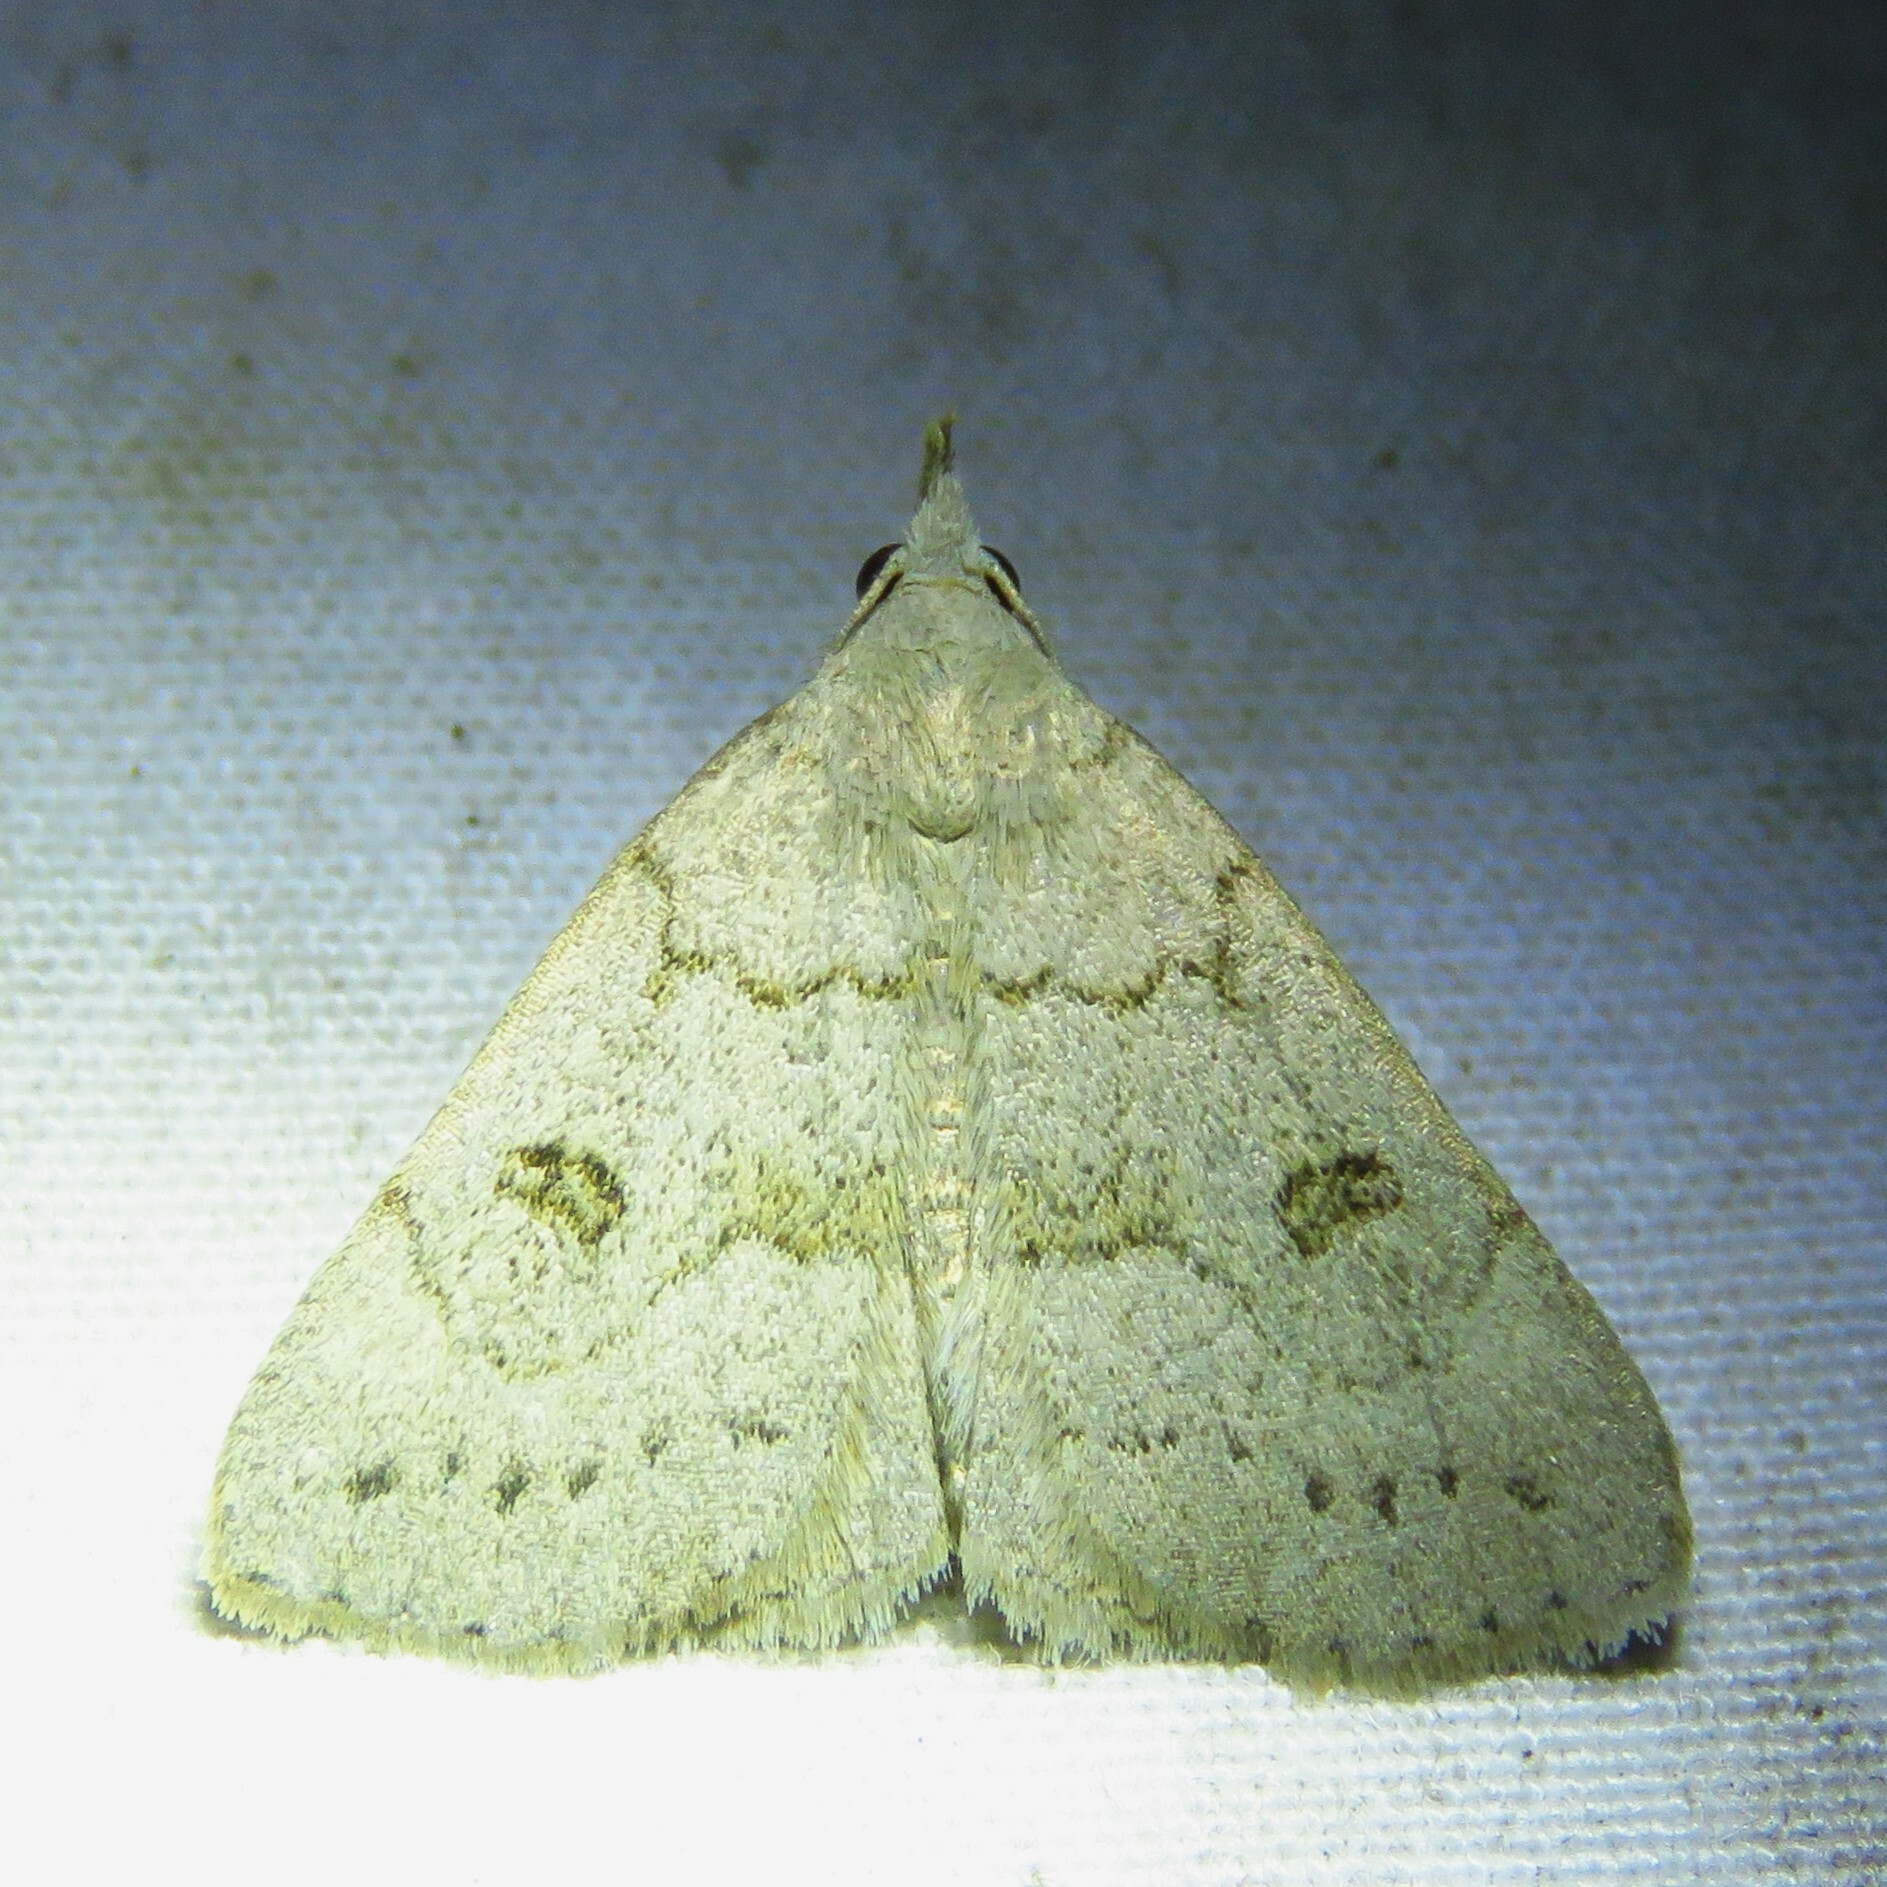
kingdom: Animalia
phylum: Arthropoda
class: Insecta
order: Lepidoptera
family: Erebidae
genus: Macrochilo
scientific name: Macrochilo morbidalis
